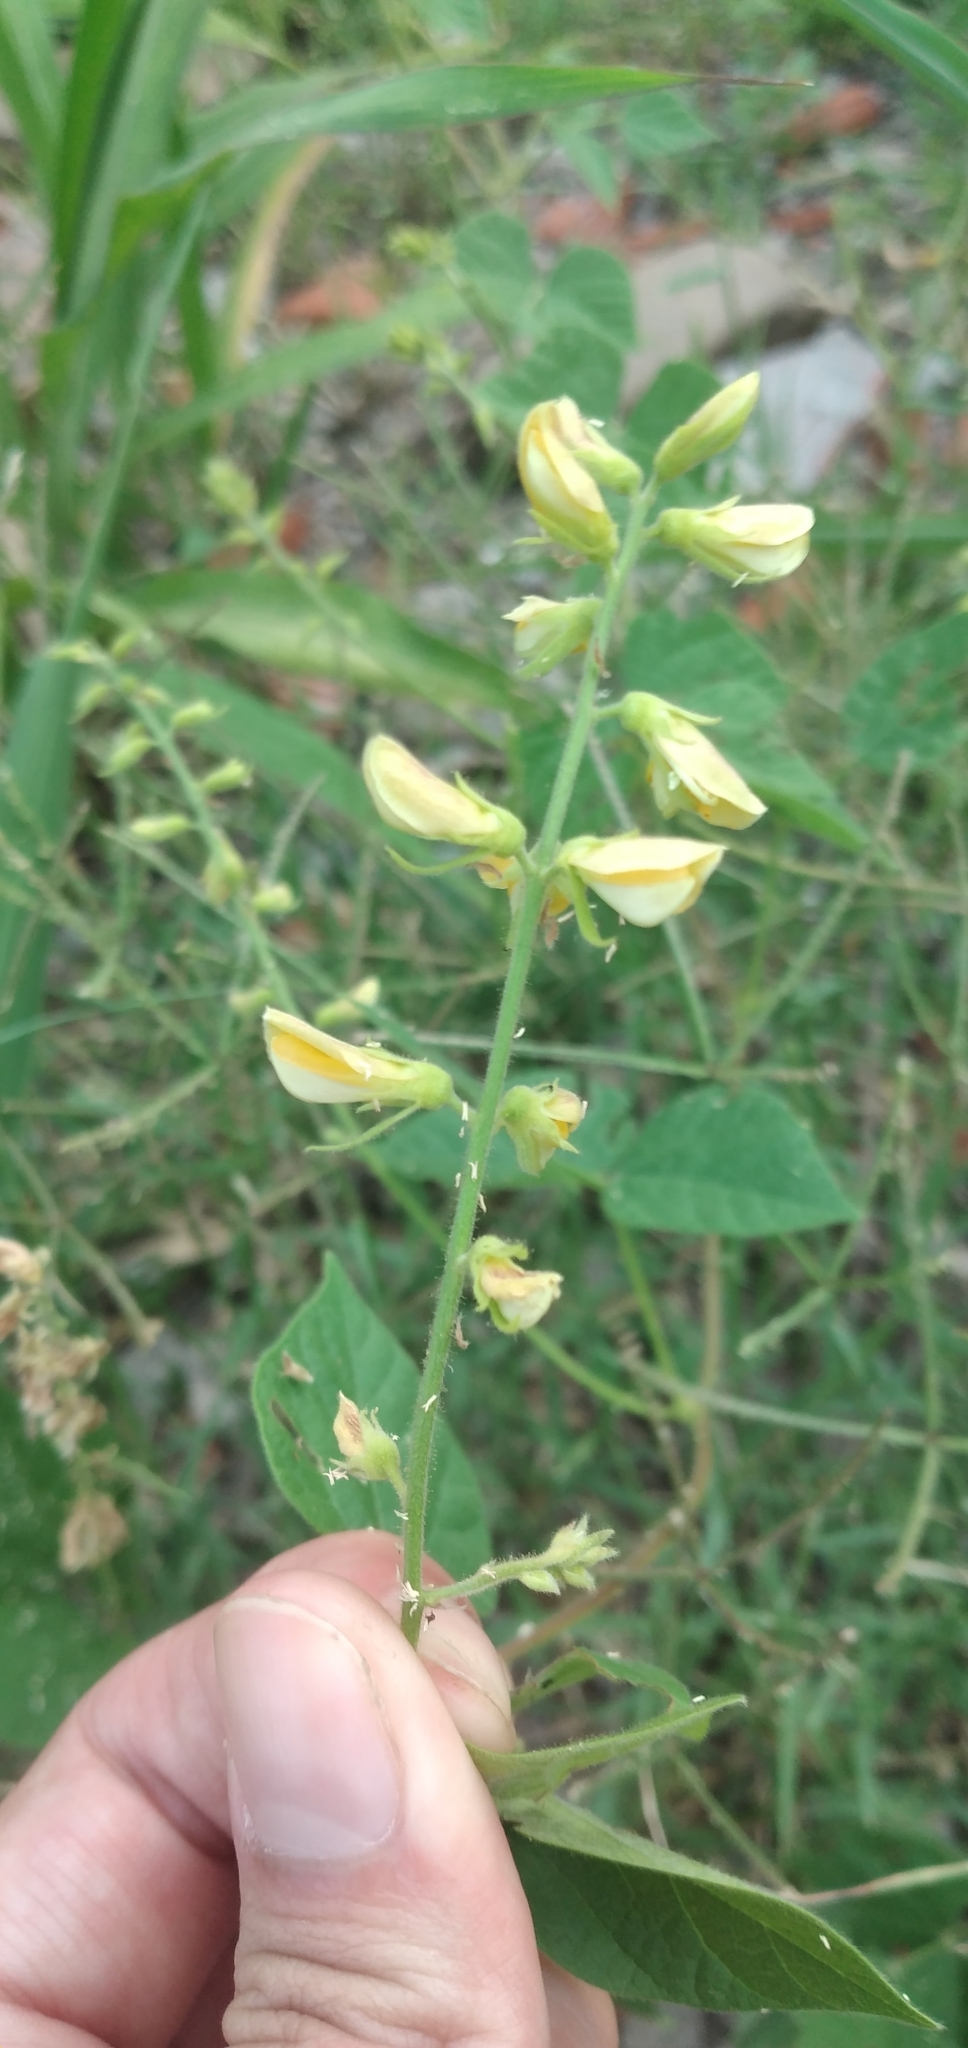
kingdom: Plantae
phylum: Tracheophyta
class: Magnoliopsida
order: Fabales
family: Fabaceae
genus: Rhynchosia
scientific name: Rhynchosia edulis
